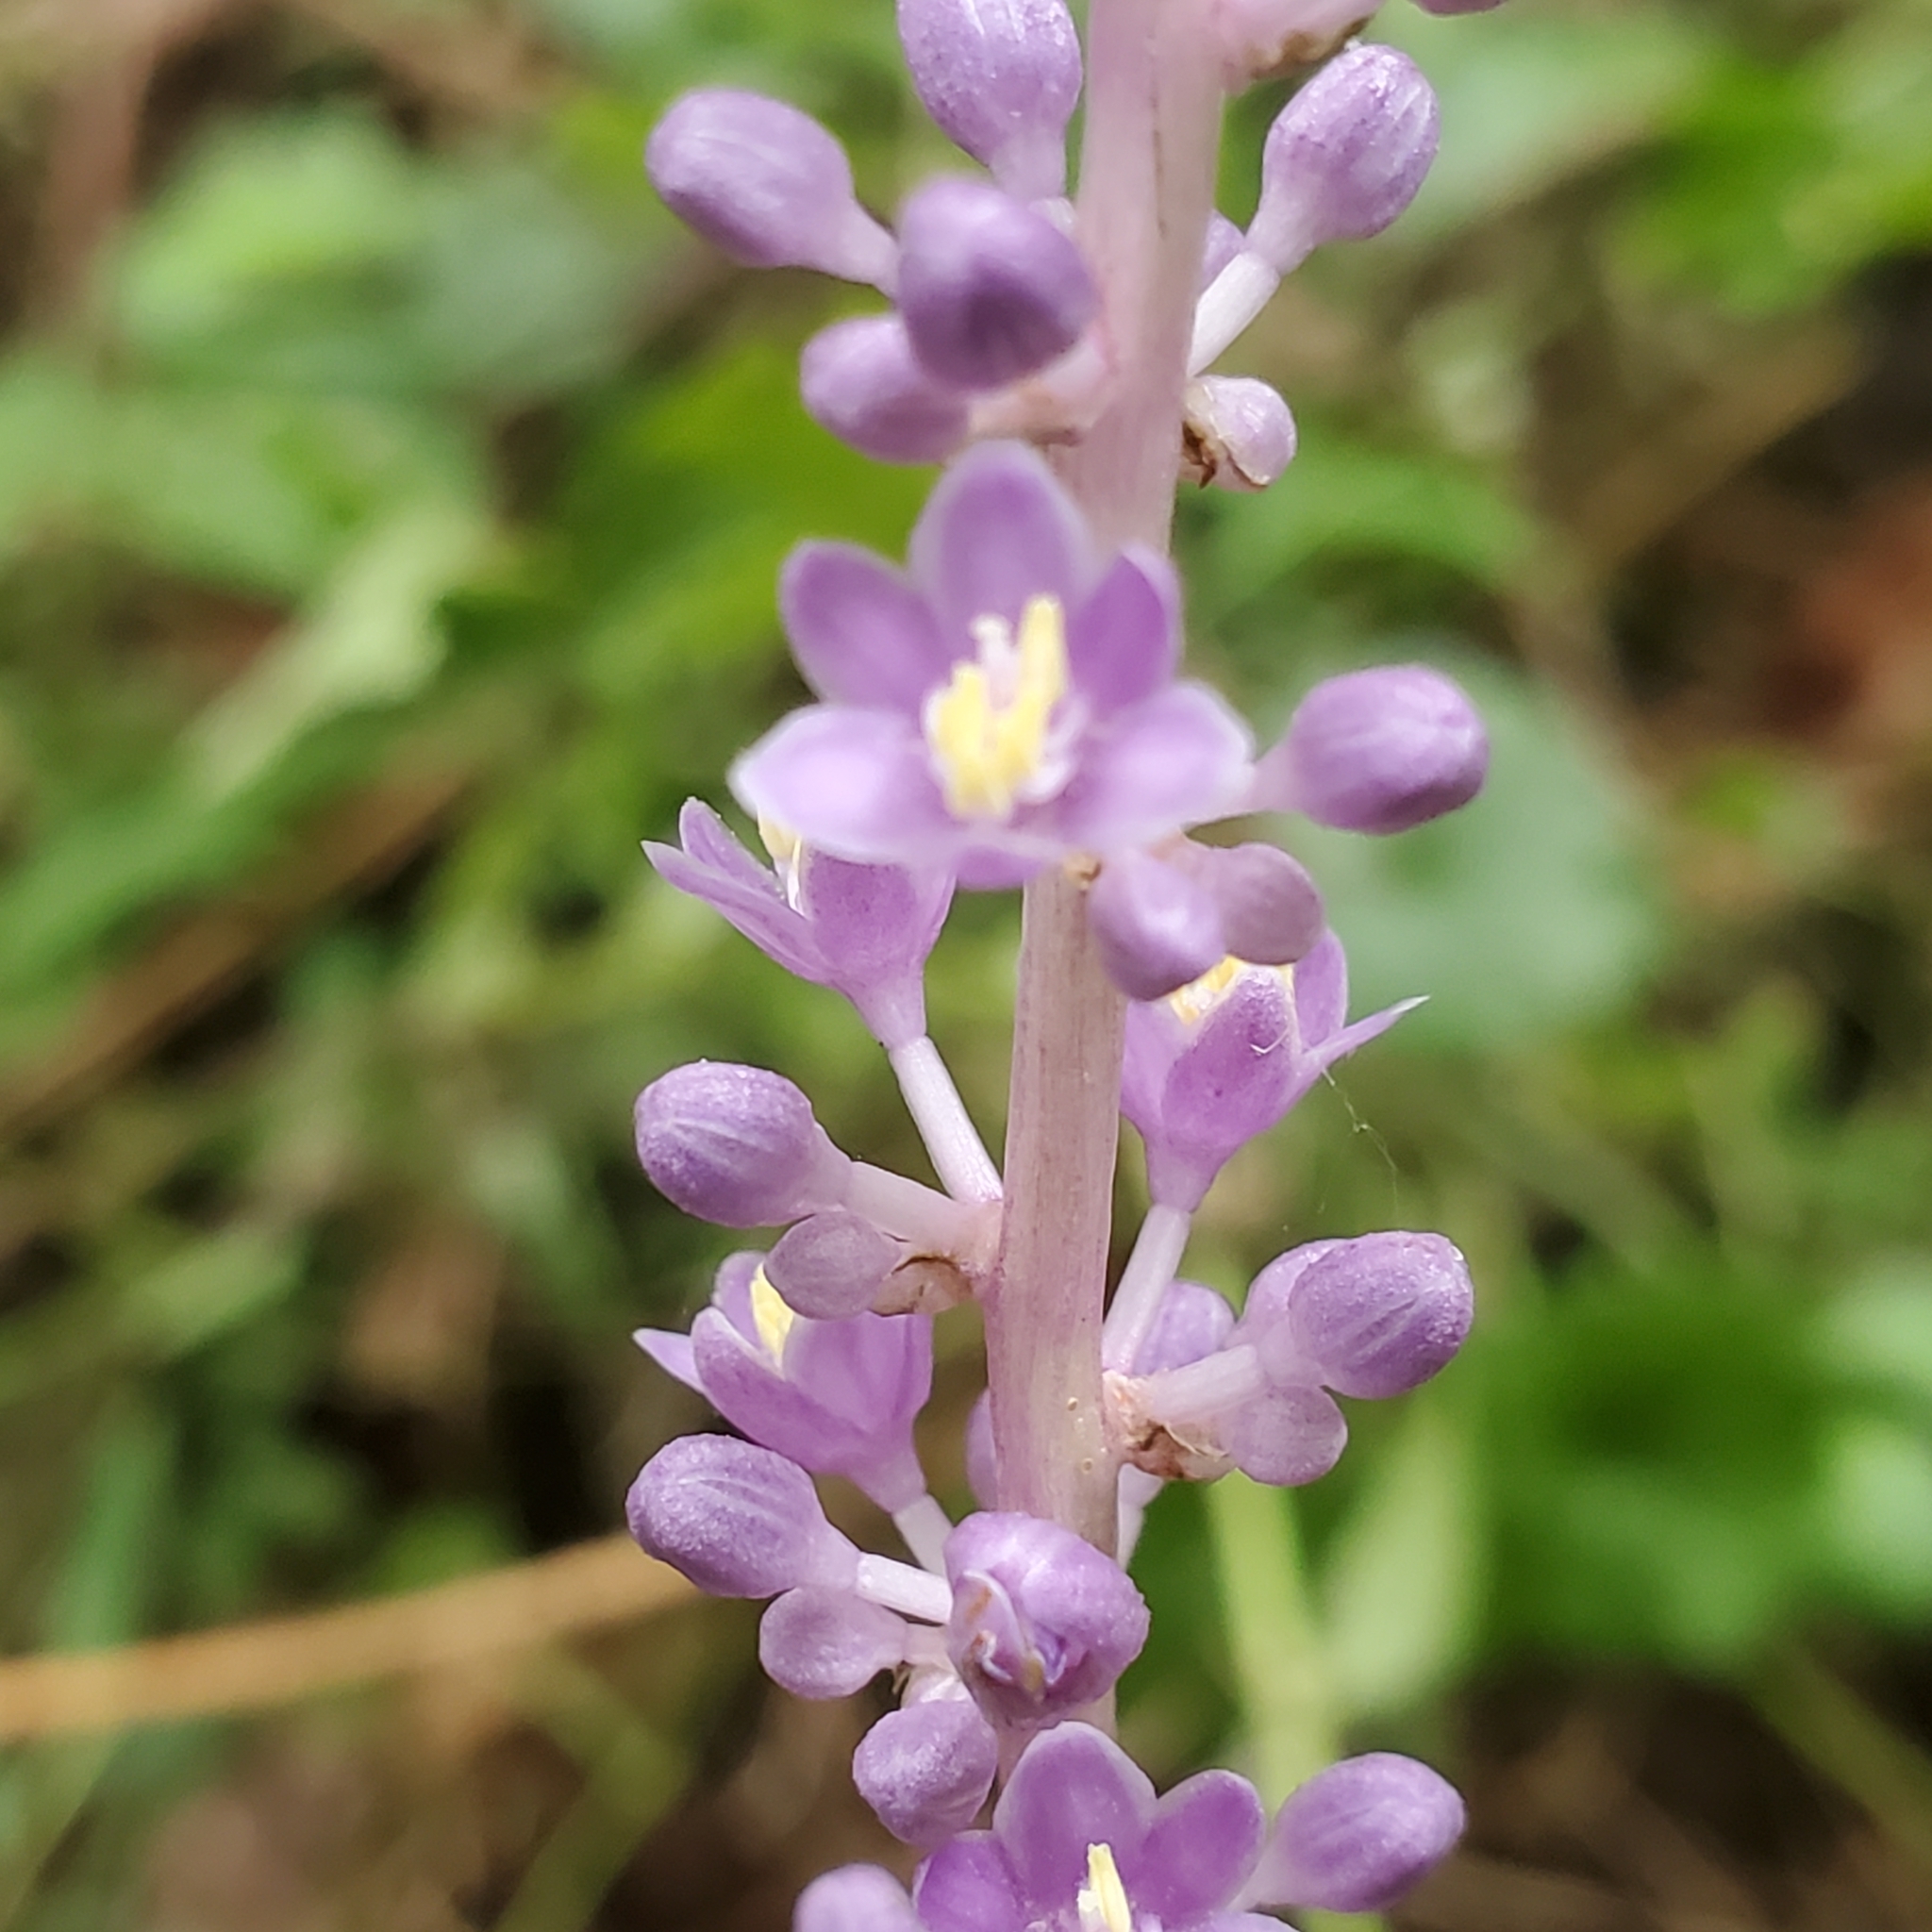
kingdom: Plantae
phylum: Tracheophyta
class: Liliopsida
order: Asparagales
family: Asparagaceae
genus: Liriope
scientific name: Liriope muscari
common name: Big blue lilyturf
